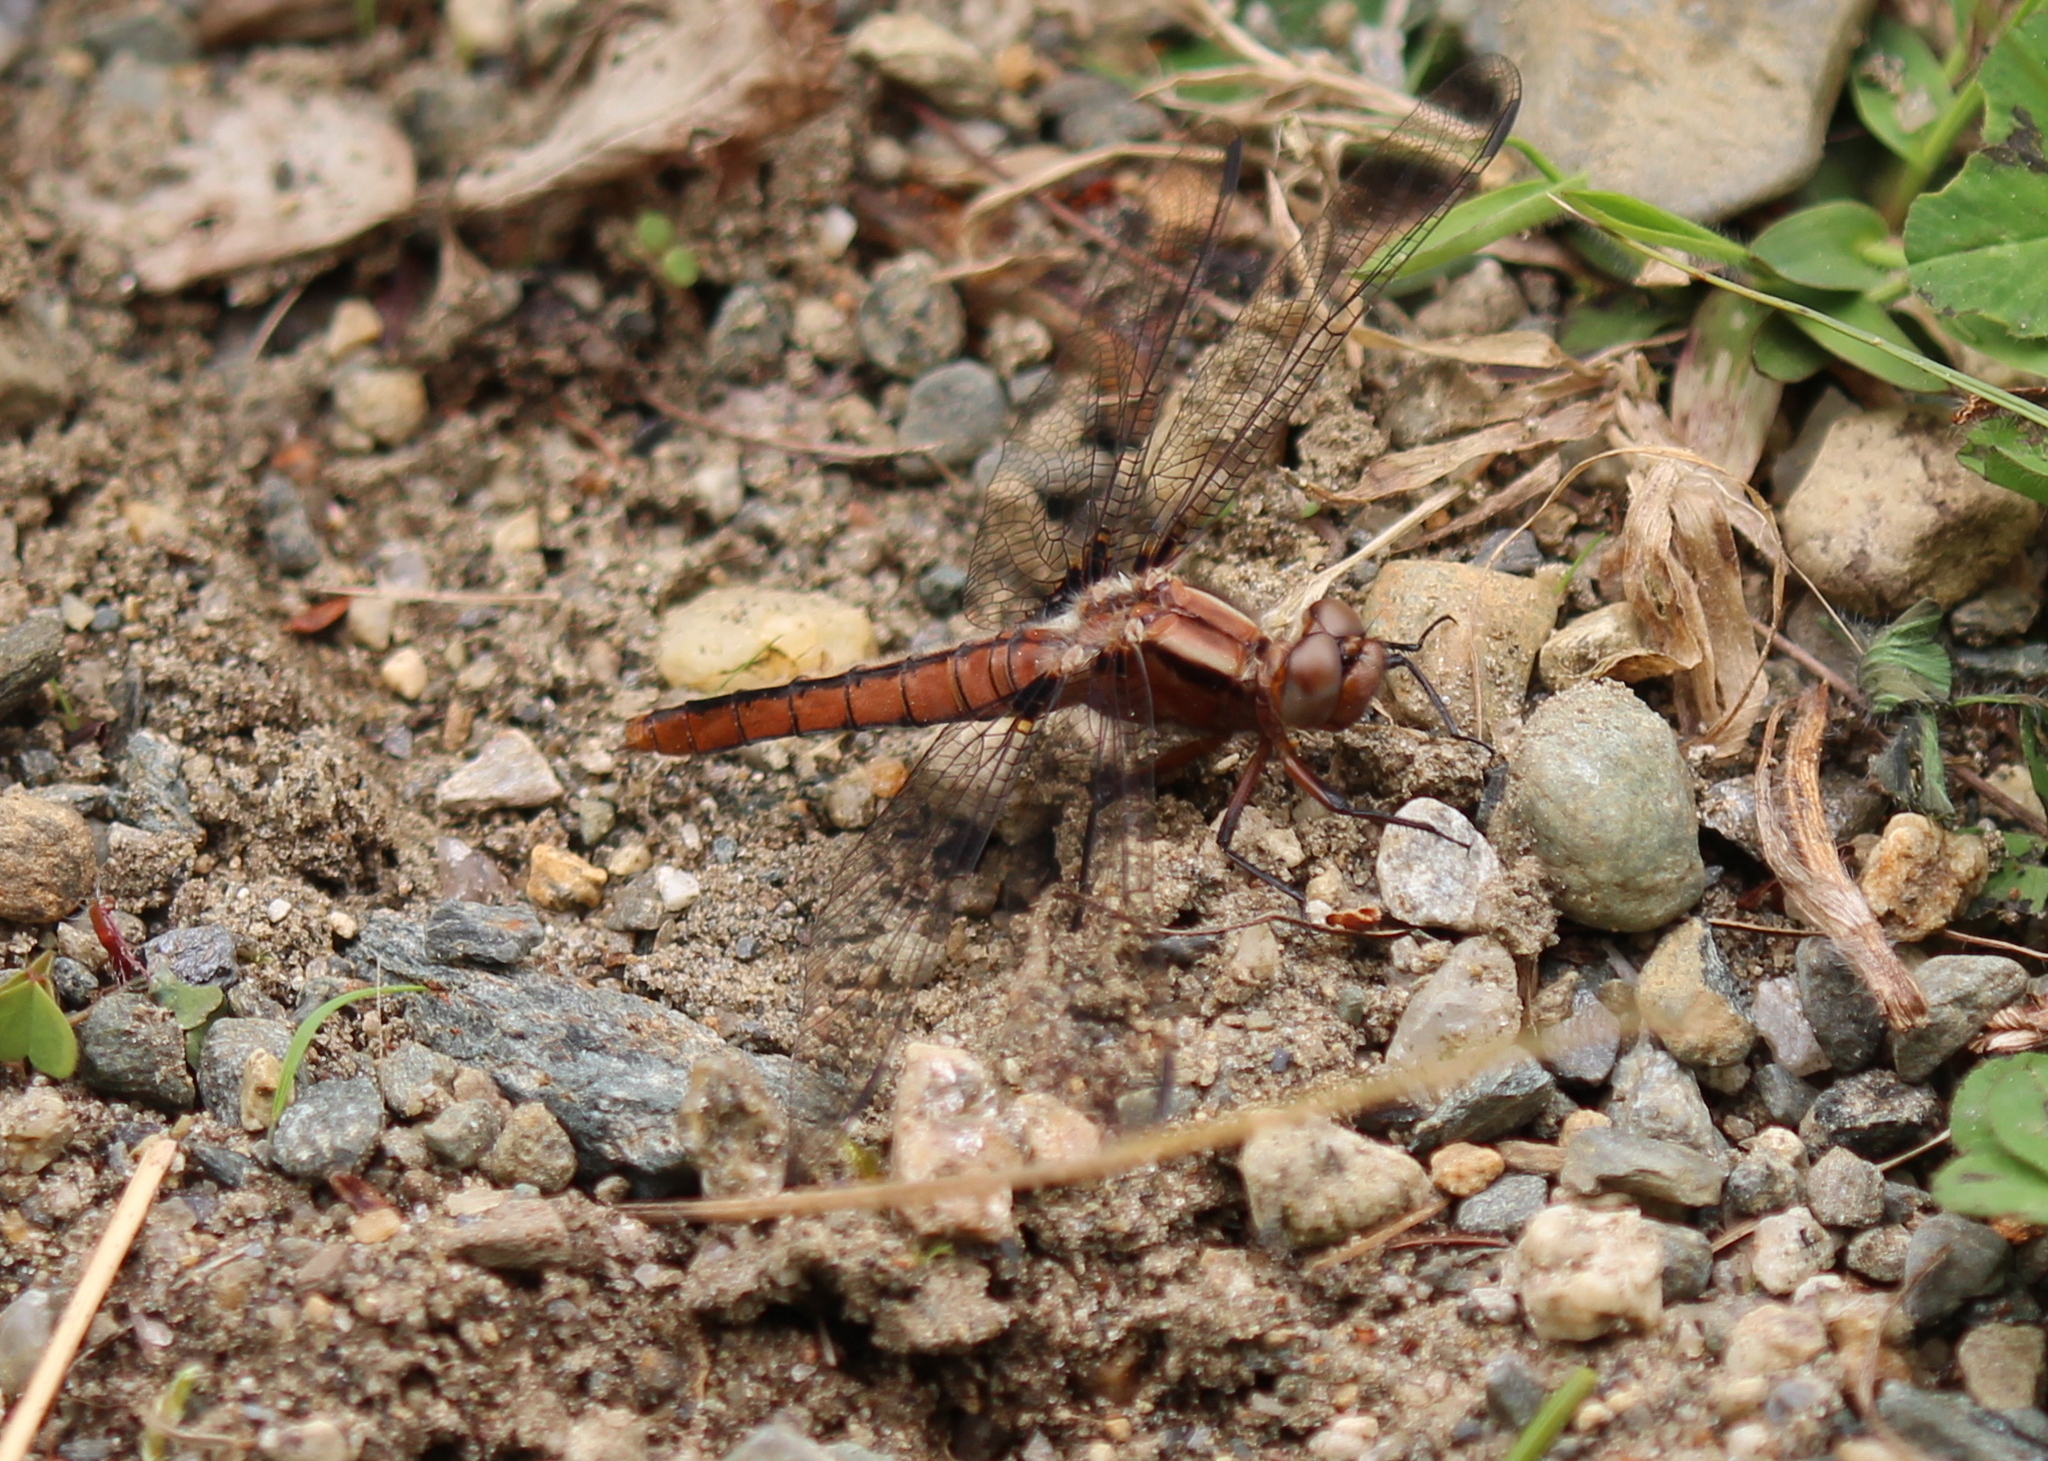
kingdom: Animalia
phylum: Arthropoda
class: Insecta
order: Odonata
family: Libellulidae
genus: Ladona
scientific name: Ladona julia
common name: Chalk-fronted corporal
